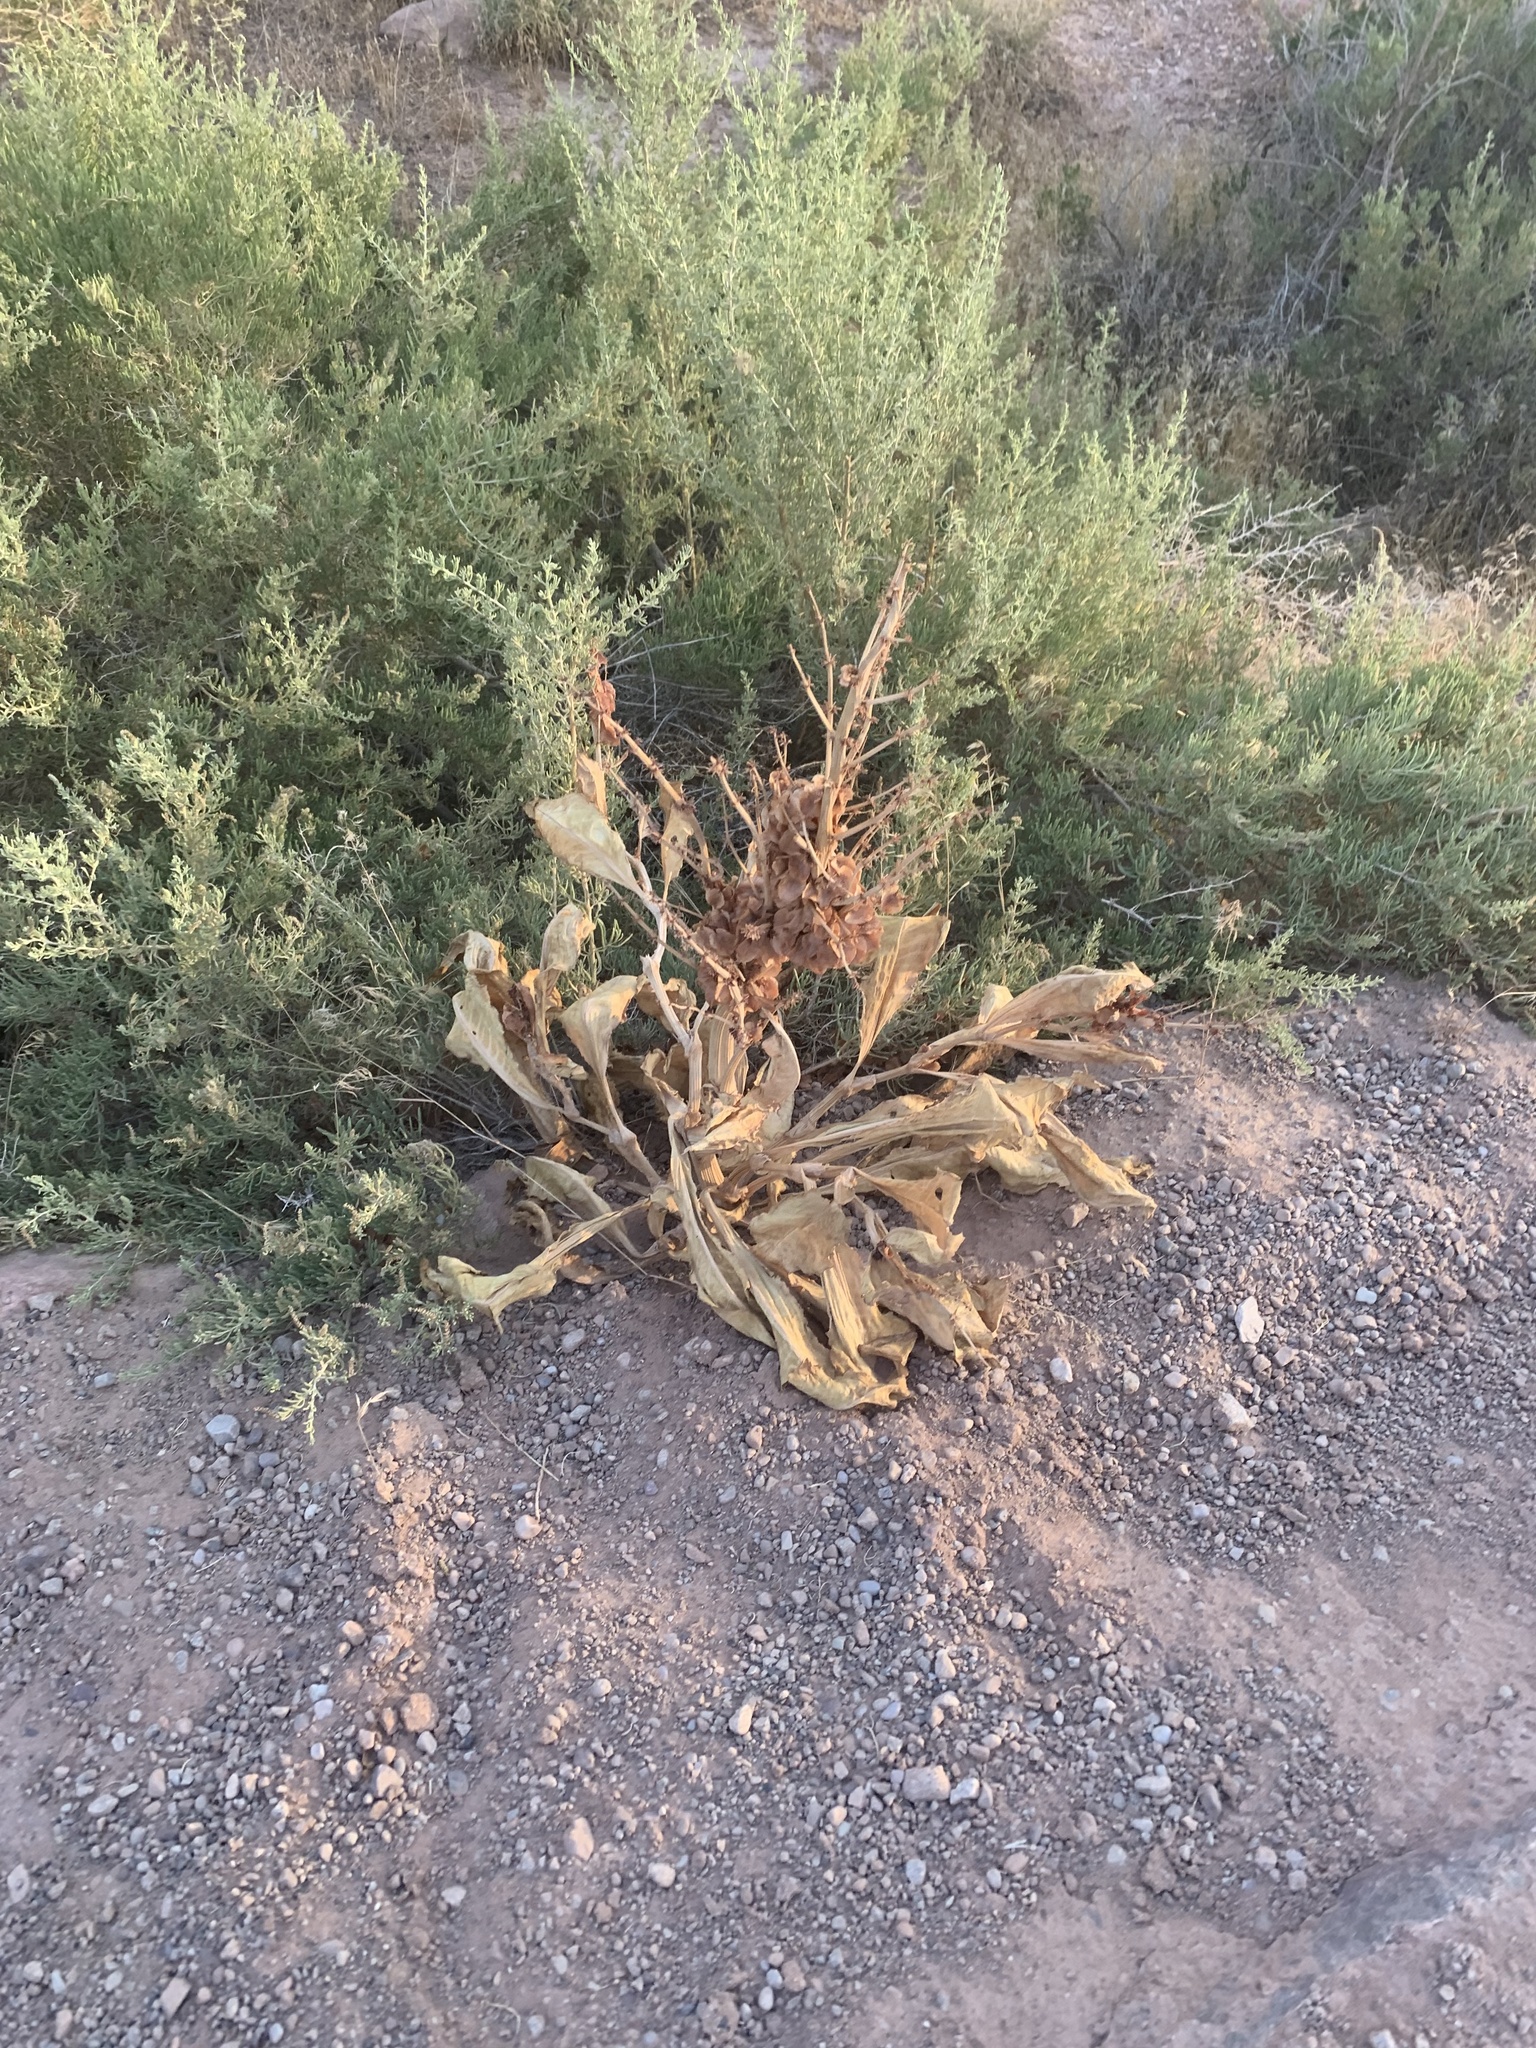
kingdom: Plantae
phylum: Tracheophyta
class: Magnoliopsida
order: Caryophyllales
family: Polygonaceae
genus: Rumex
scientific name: Rumex hymenosepalus
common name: Ganagra
